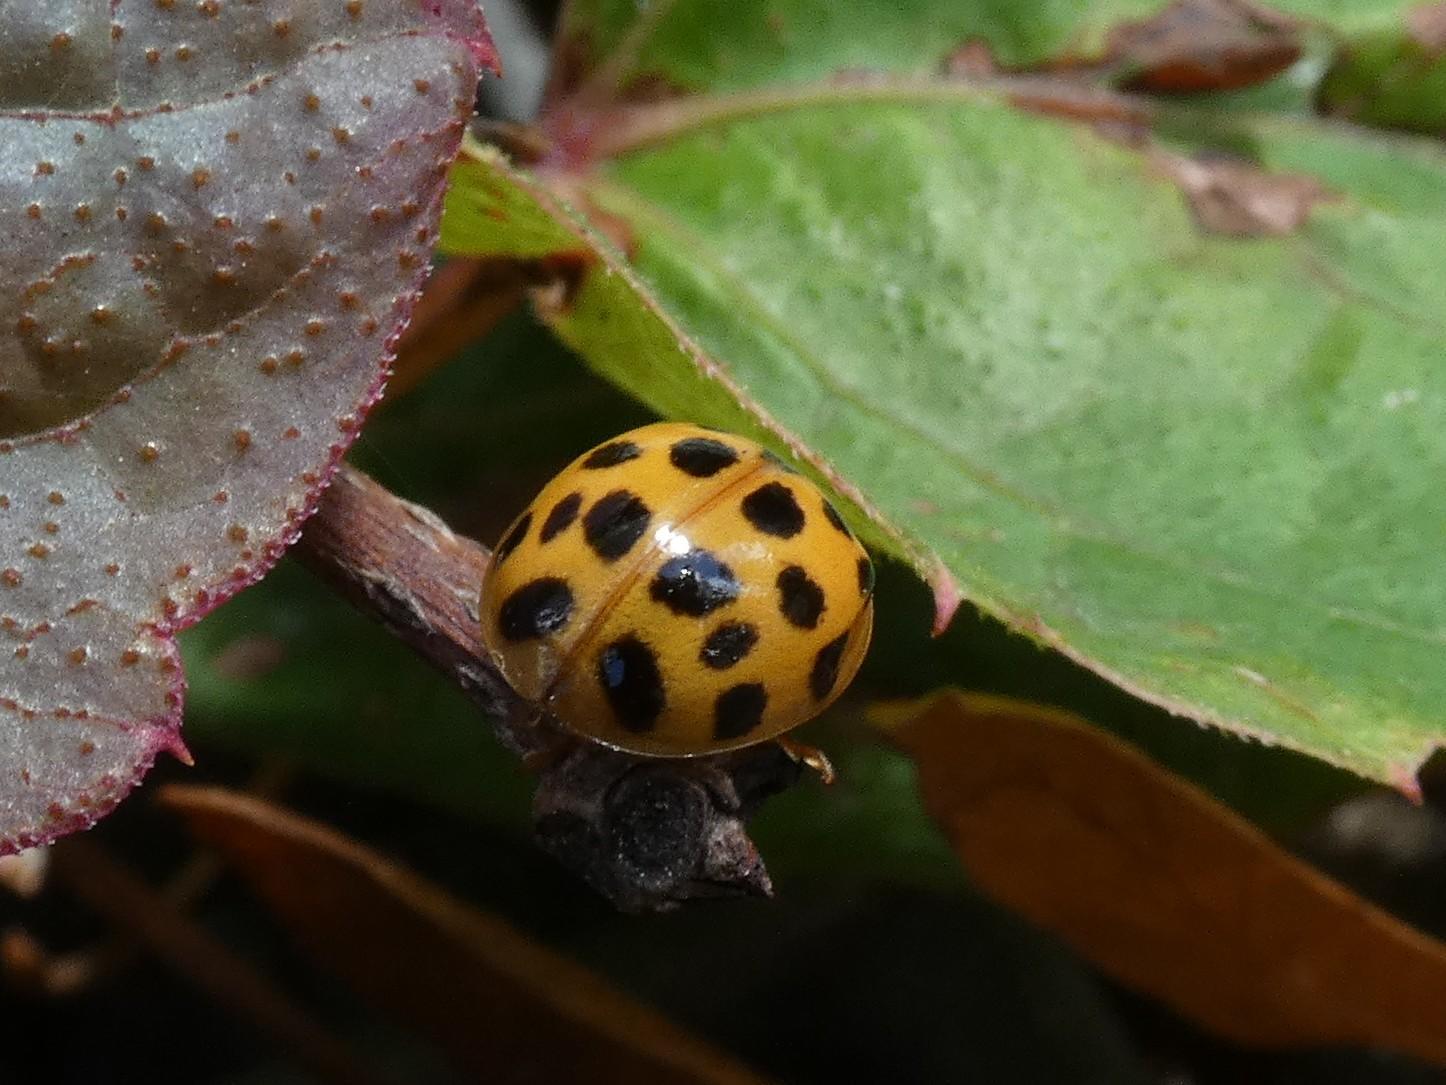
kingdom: Animalia
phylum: Arthropoda
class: Insecta
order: Coleoptera
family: Coccinellidae
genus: Harmonia
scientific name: Harmonia axyridis
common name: Harlequin ladybird
